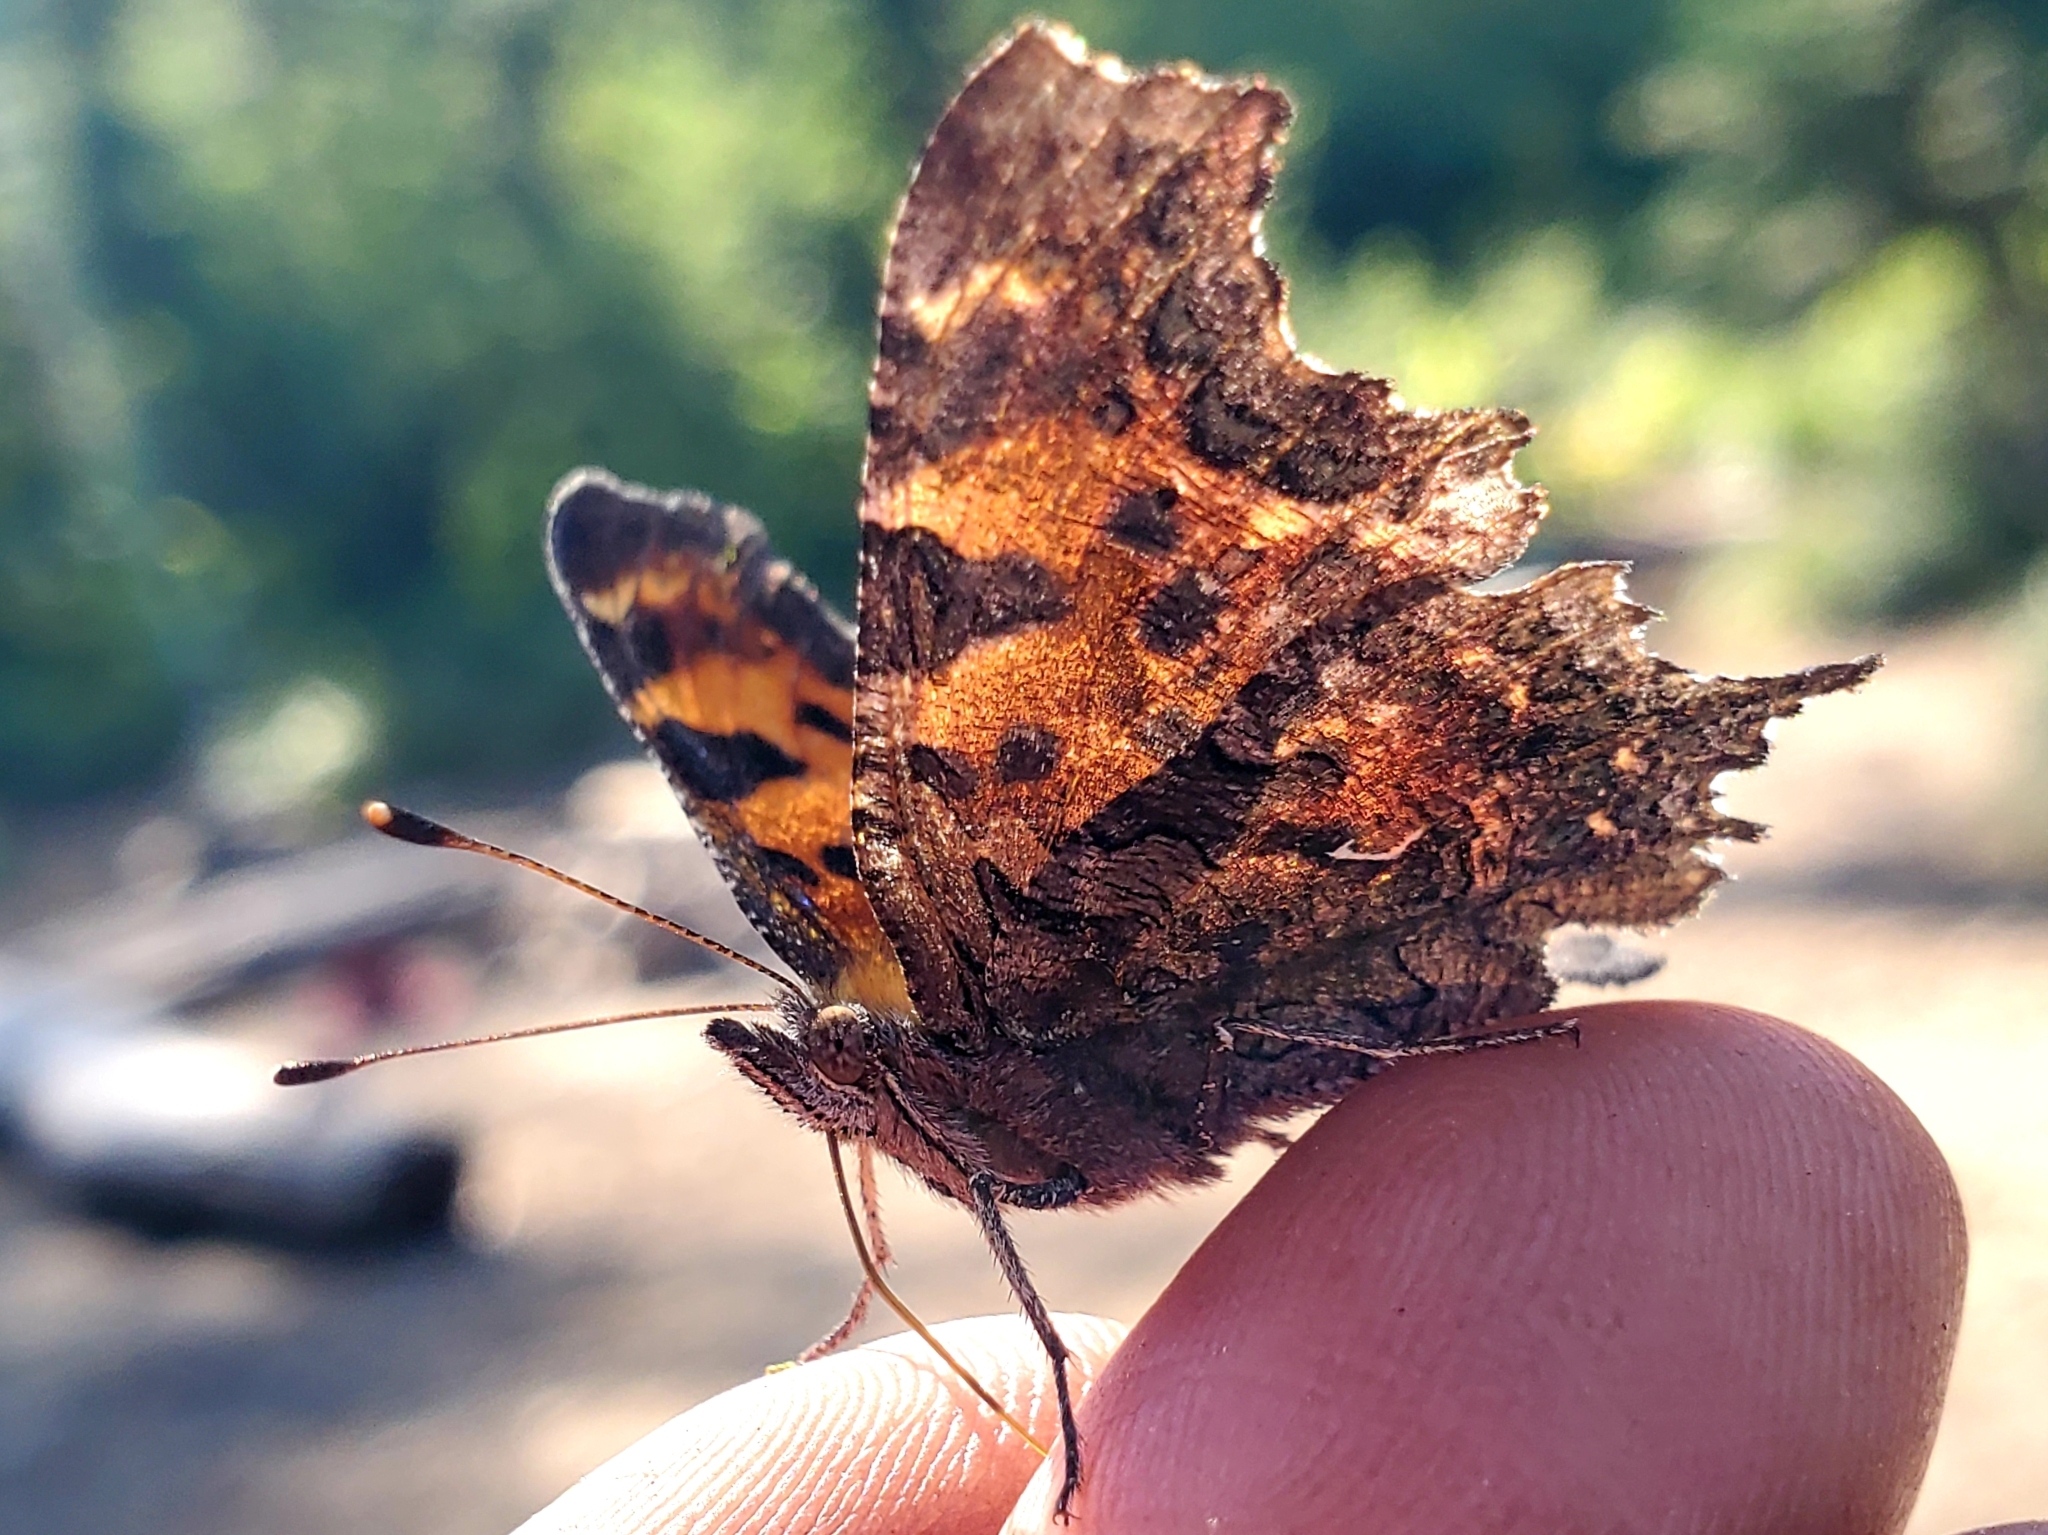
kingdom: Animalia
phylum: Arthropoda
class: Insecta
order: Lepidoptera
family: Nymphalidae
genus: Polygonia
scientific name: Polygonia faunus
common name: Green comma
